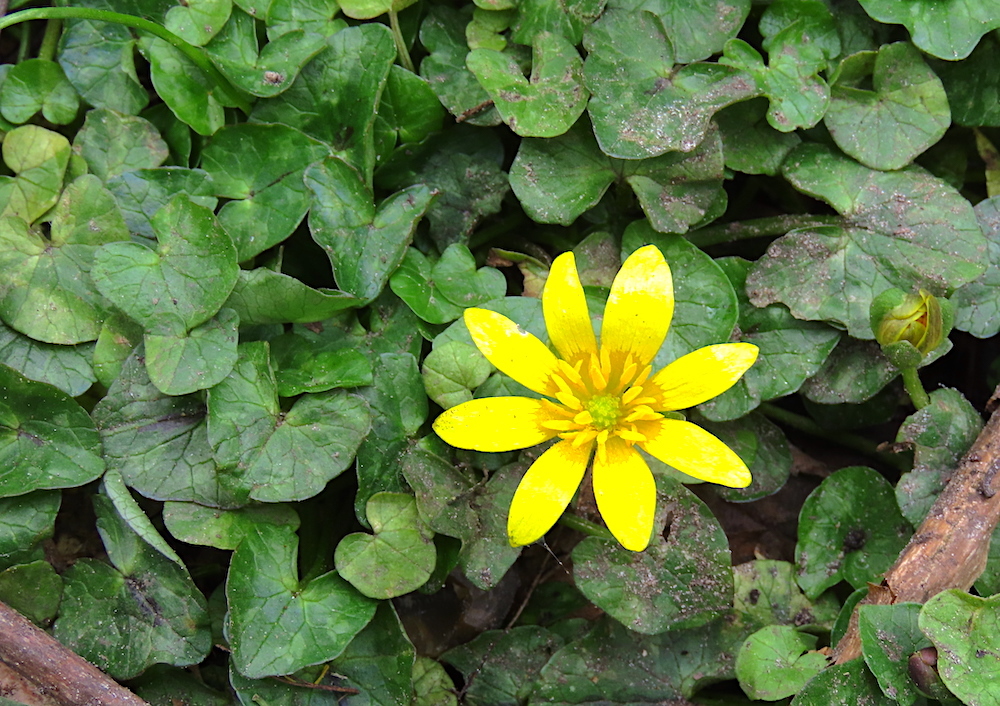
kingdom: Plantae
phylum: Tracheophyta
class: Magnoliopsida
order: Ranunculales
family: Ranunculaceae
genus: Ficaria
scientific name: Ficaria verna
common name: Lesser celandine
